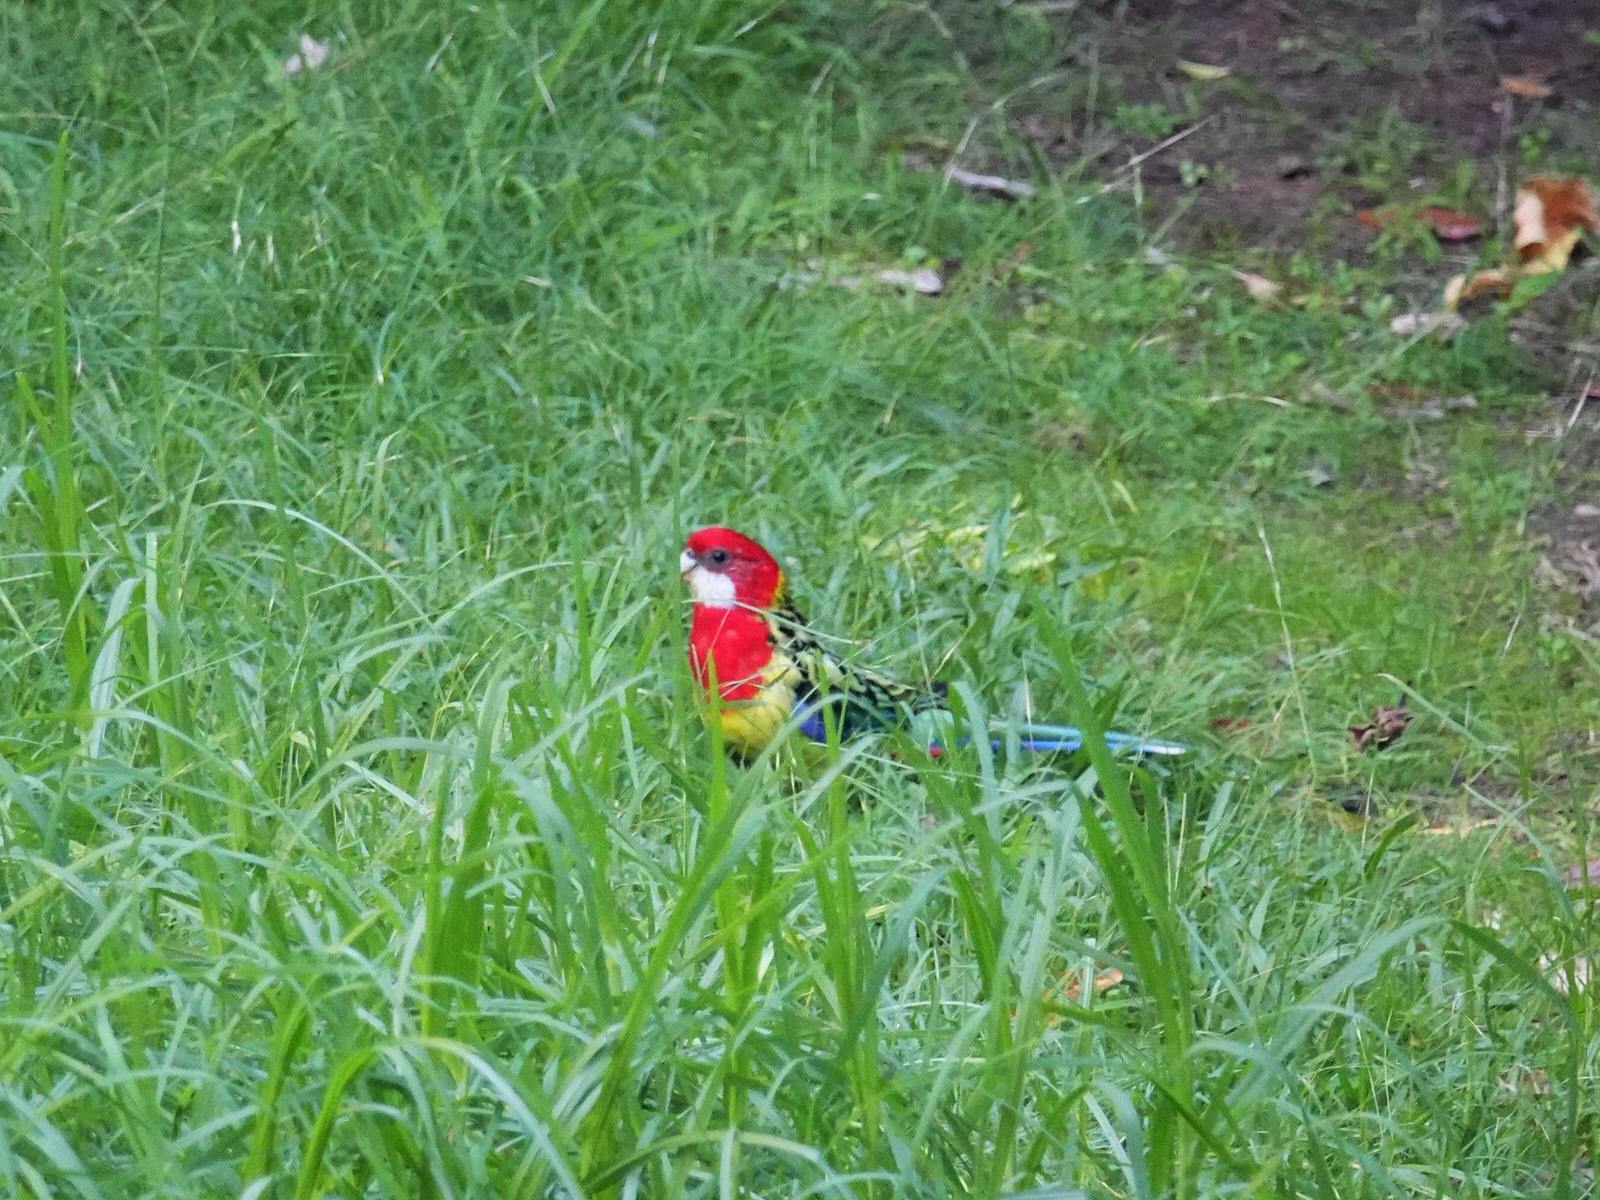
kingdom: Animalia
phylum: Chordata
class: Aves
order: Psittaciformes
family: Psittacidae
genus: Platycercus
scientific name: Platycercus eximius
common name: Eastern rosella
